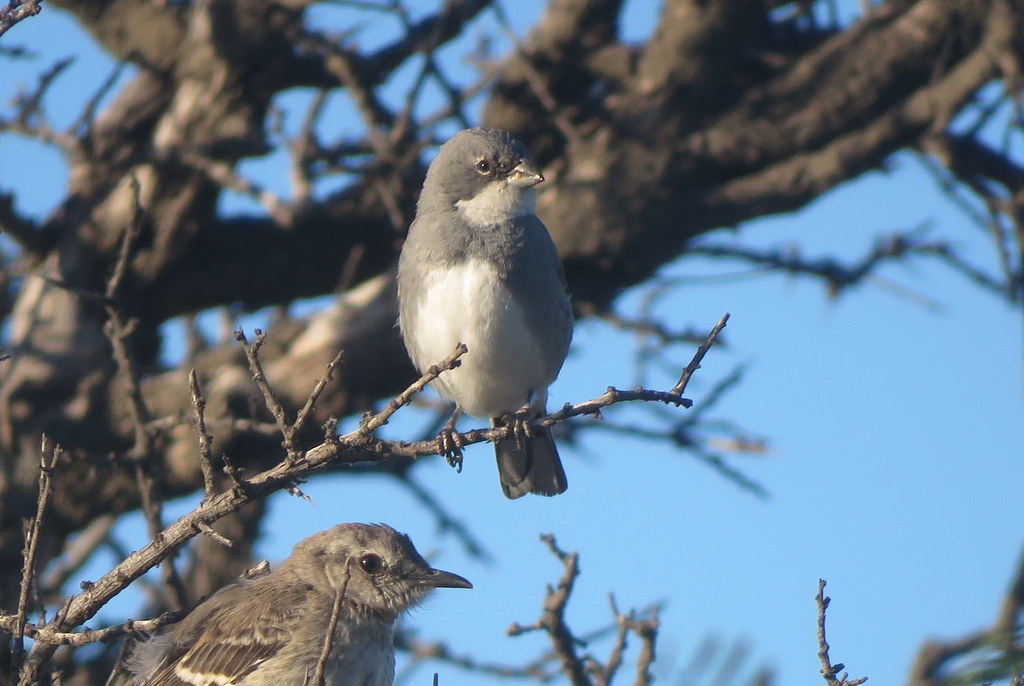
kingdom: Animalia
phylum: Chordata
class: Aves
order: Passeriformes
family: Thraupidae
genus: Diuca
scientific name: Diuca diuca
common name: Common diuca finch
